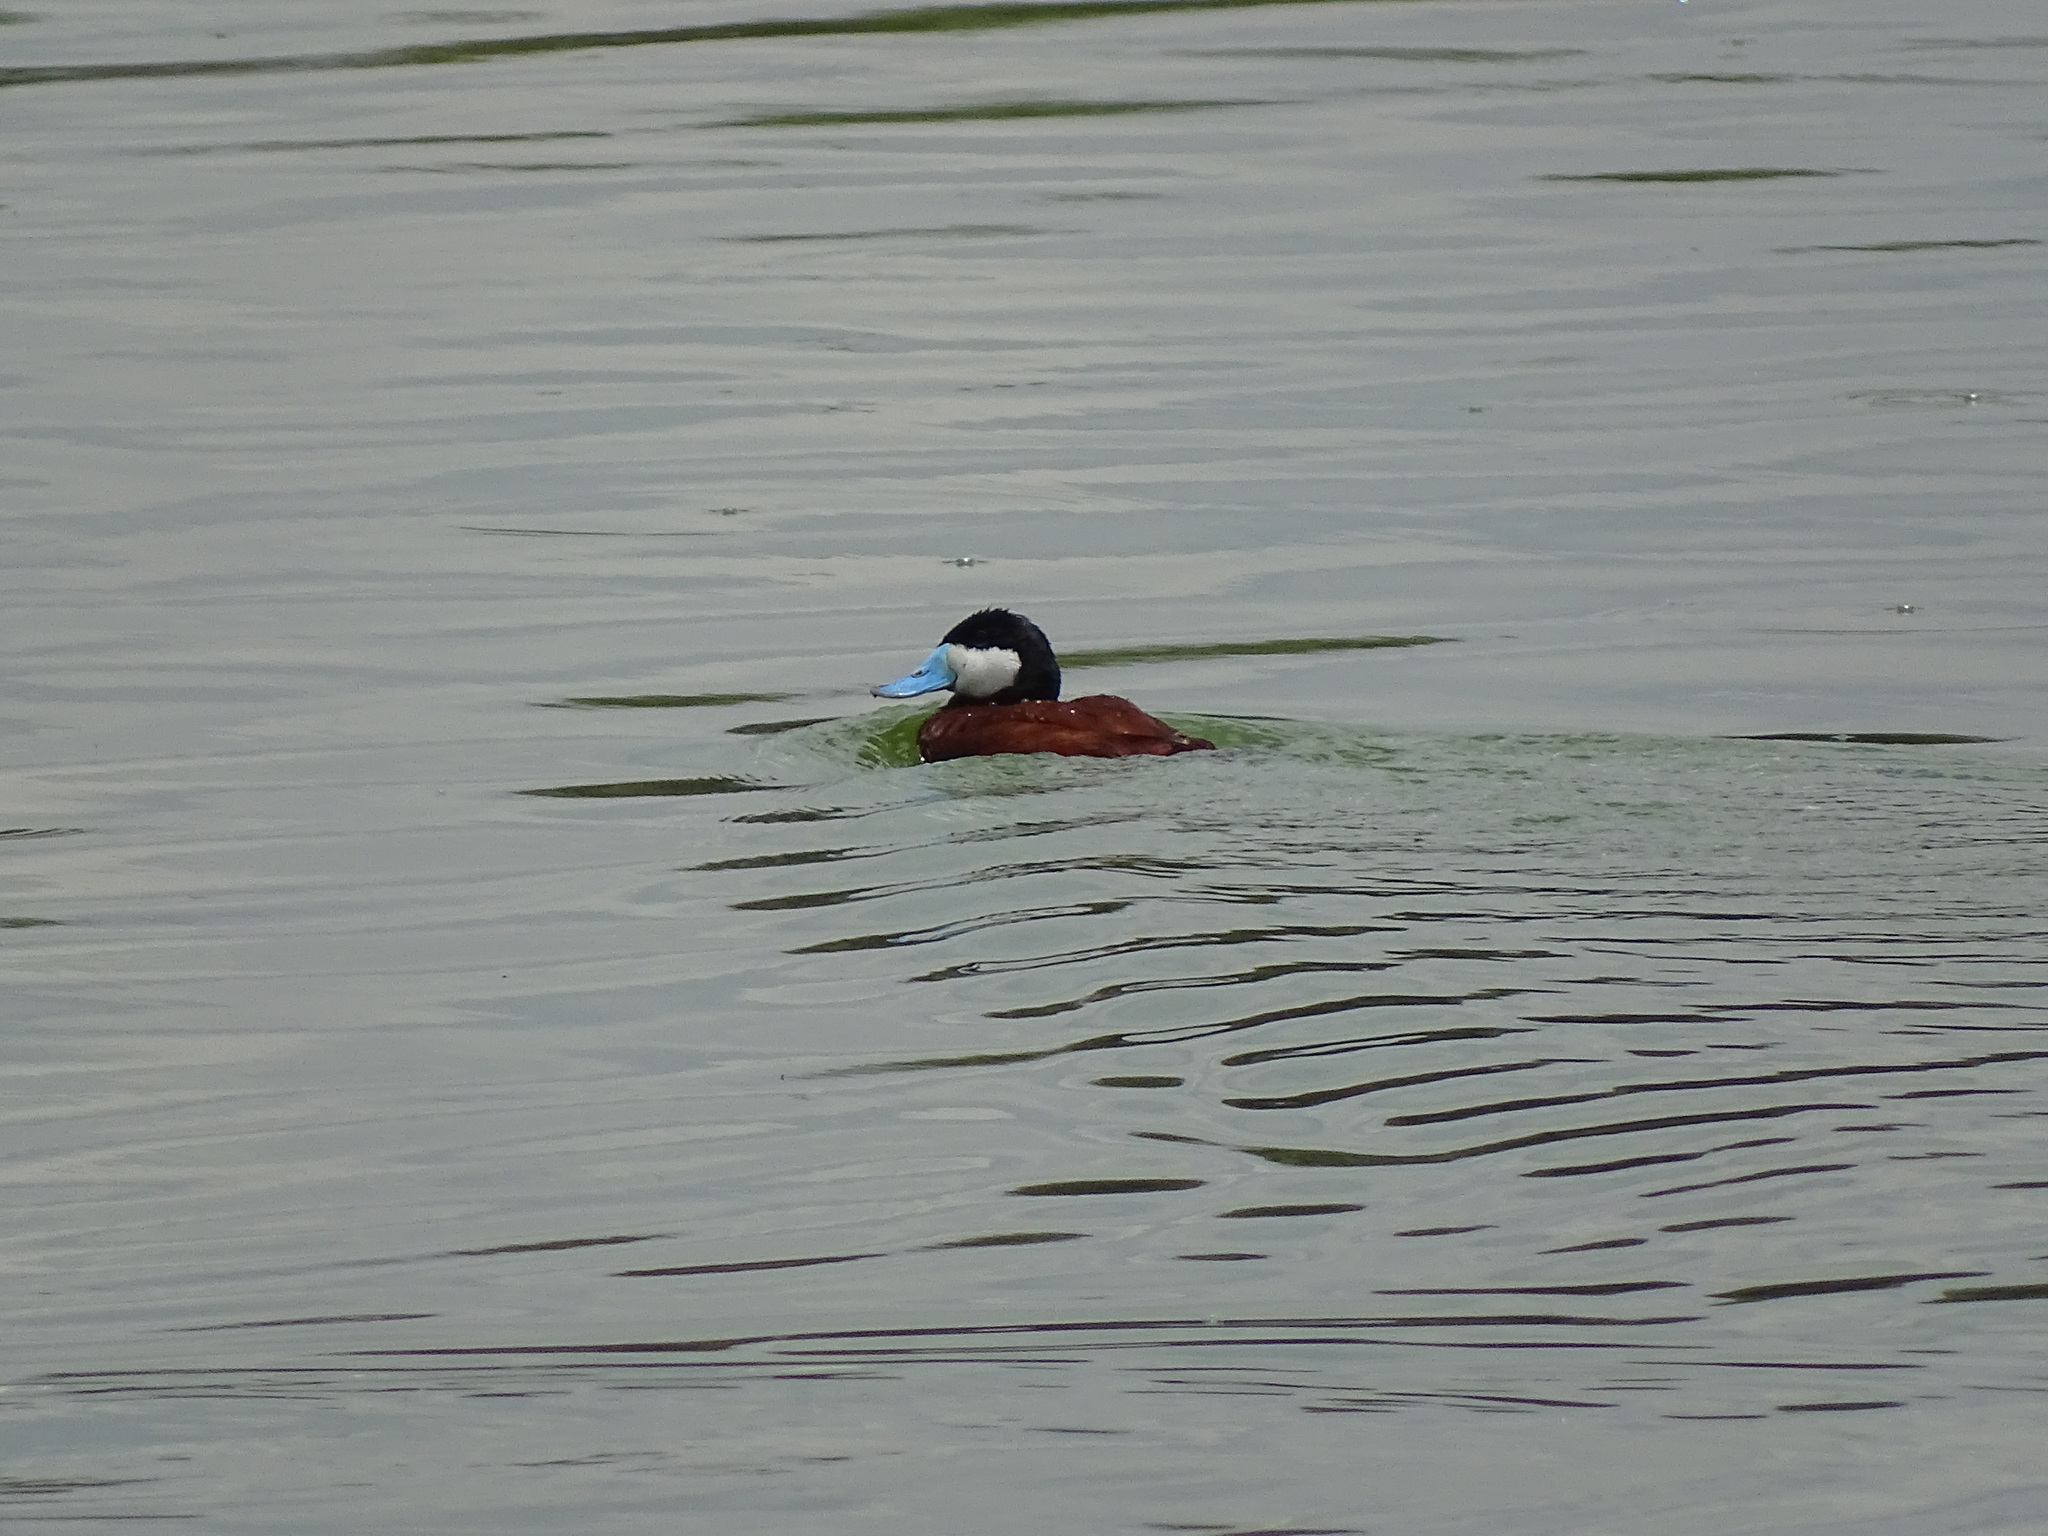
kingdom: Animalia
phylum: Chordata
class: Aves
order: Anseriformes
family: Anatidae
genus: Oxyura
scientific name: Oxyura jamaicensis
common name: Ruddy duck
